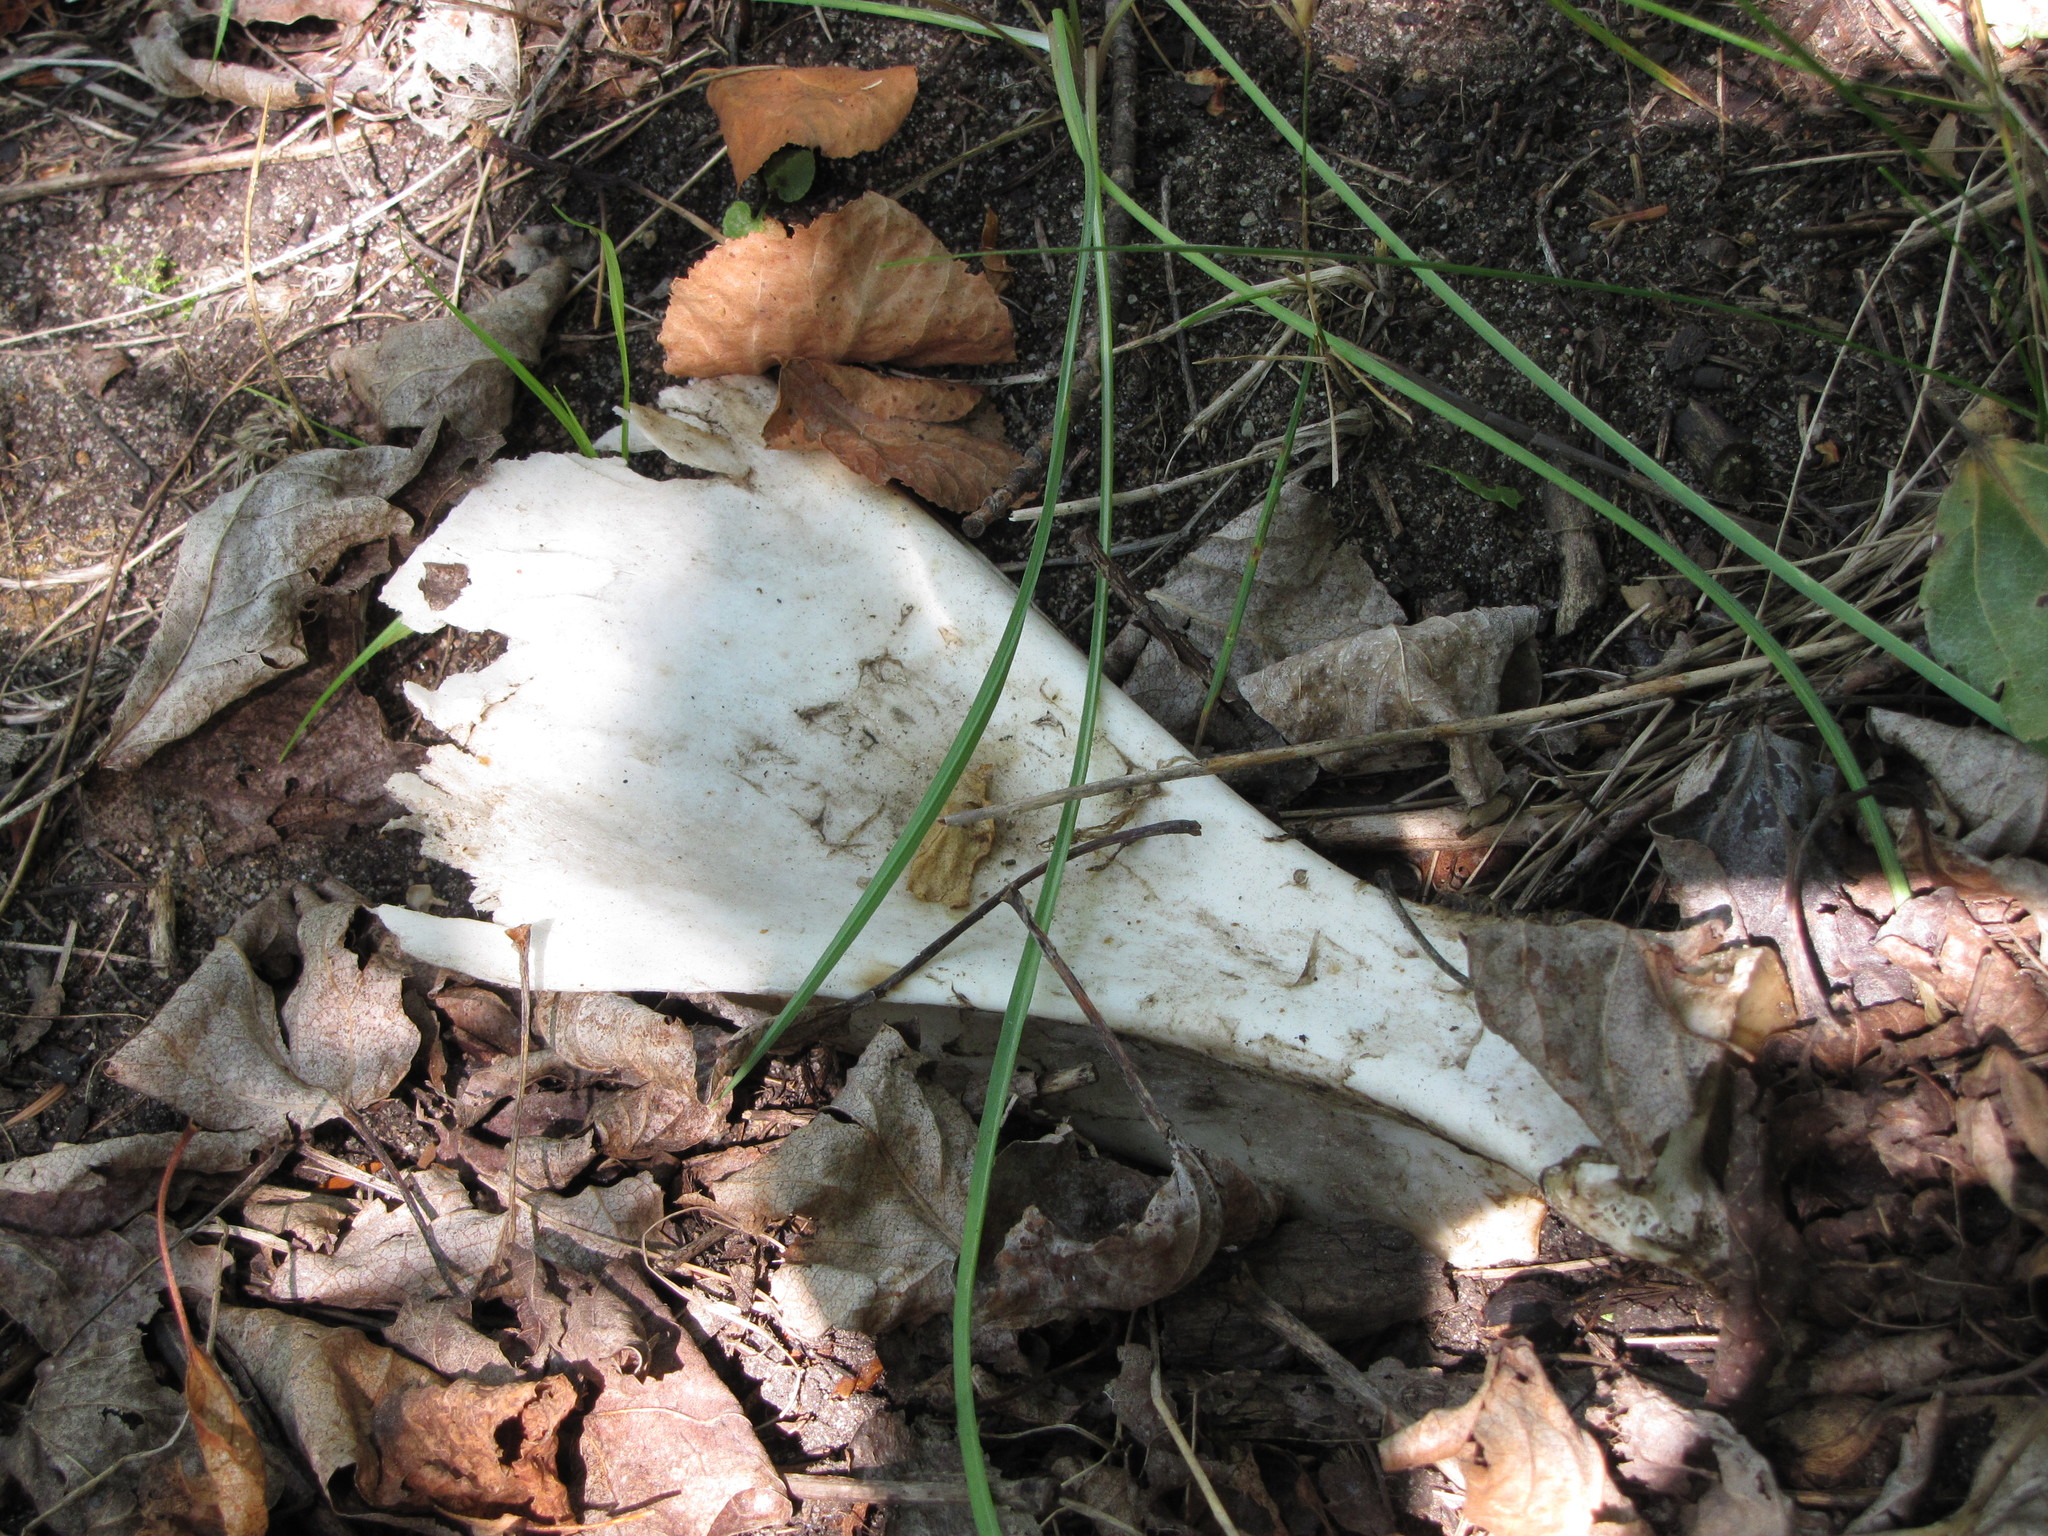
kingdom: Animalia
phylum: Chordata
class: Mammalia
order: Artiodactyla
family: Cervidae
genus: Odocoileus
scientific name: Odocoileus virginianus
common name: White-tailed deer
